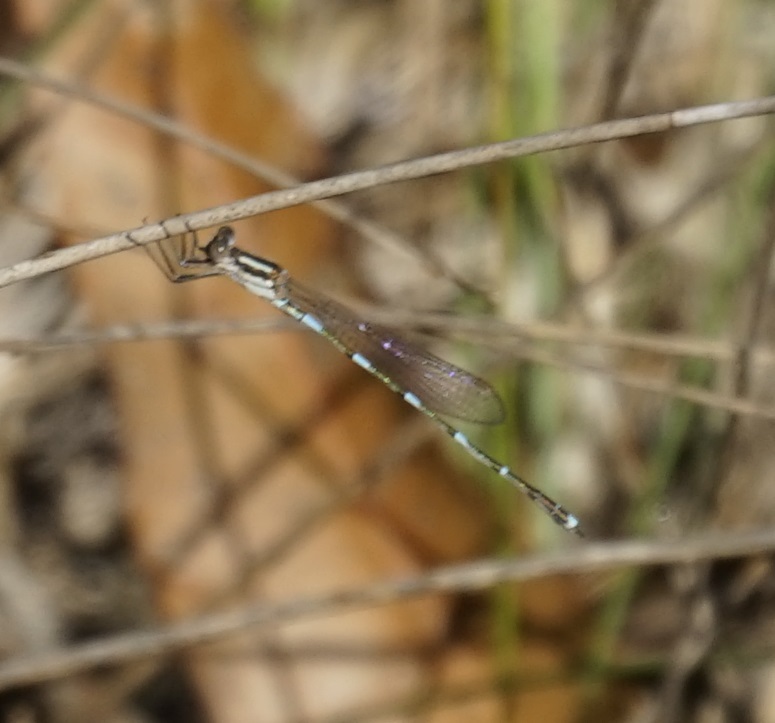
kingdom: Animalia
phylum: Arthropoda
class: Insecta
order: Odonata
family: Lestidae
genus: Austrolestes
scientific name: Austrolestes leda
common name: Wandering ringtail
